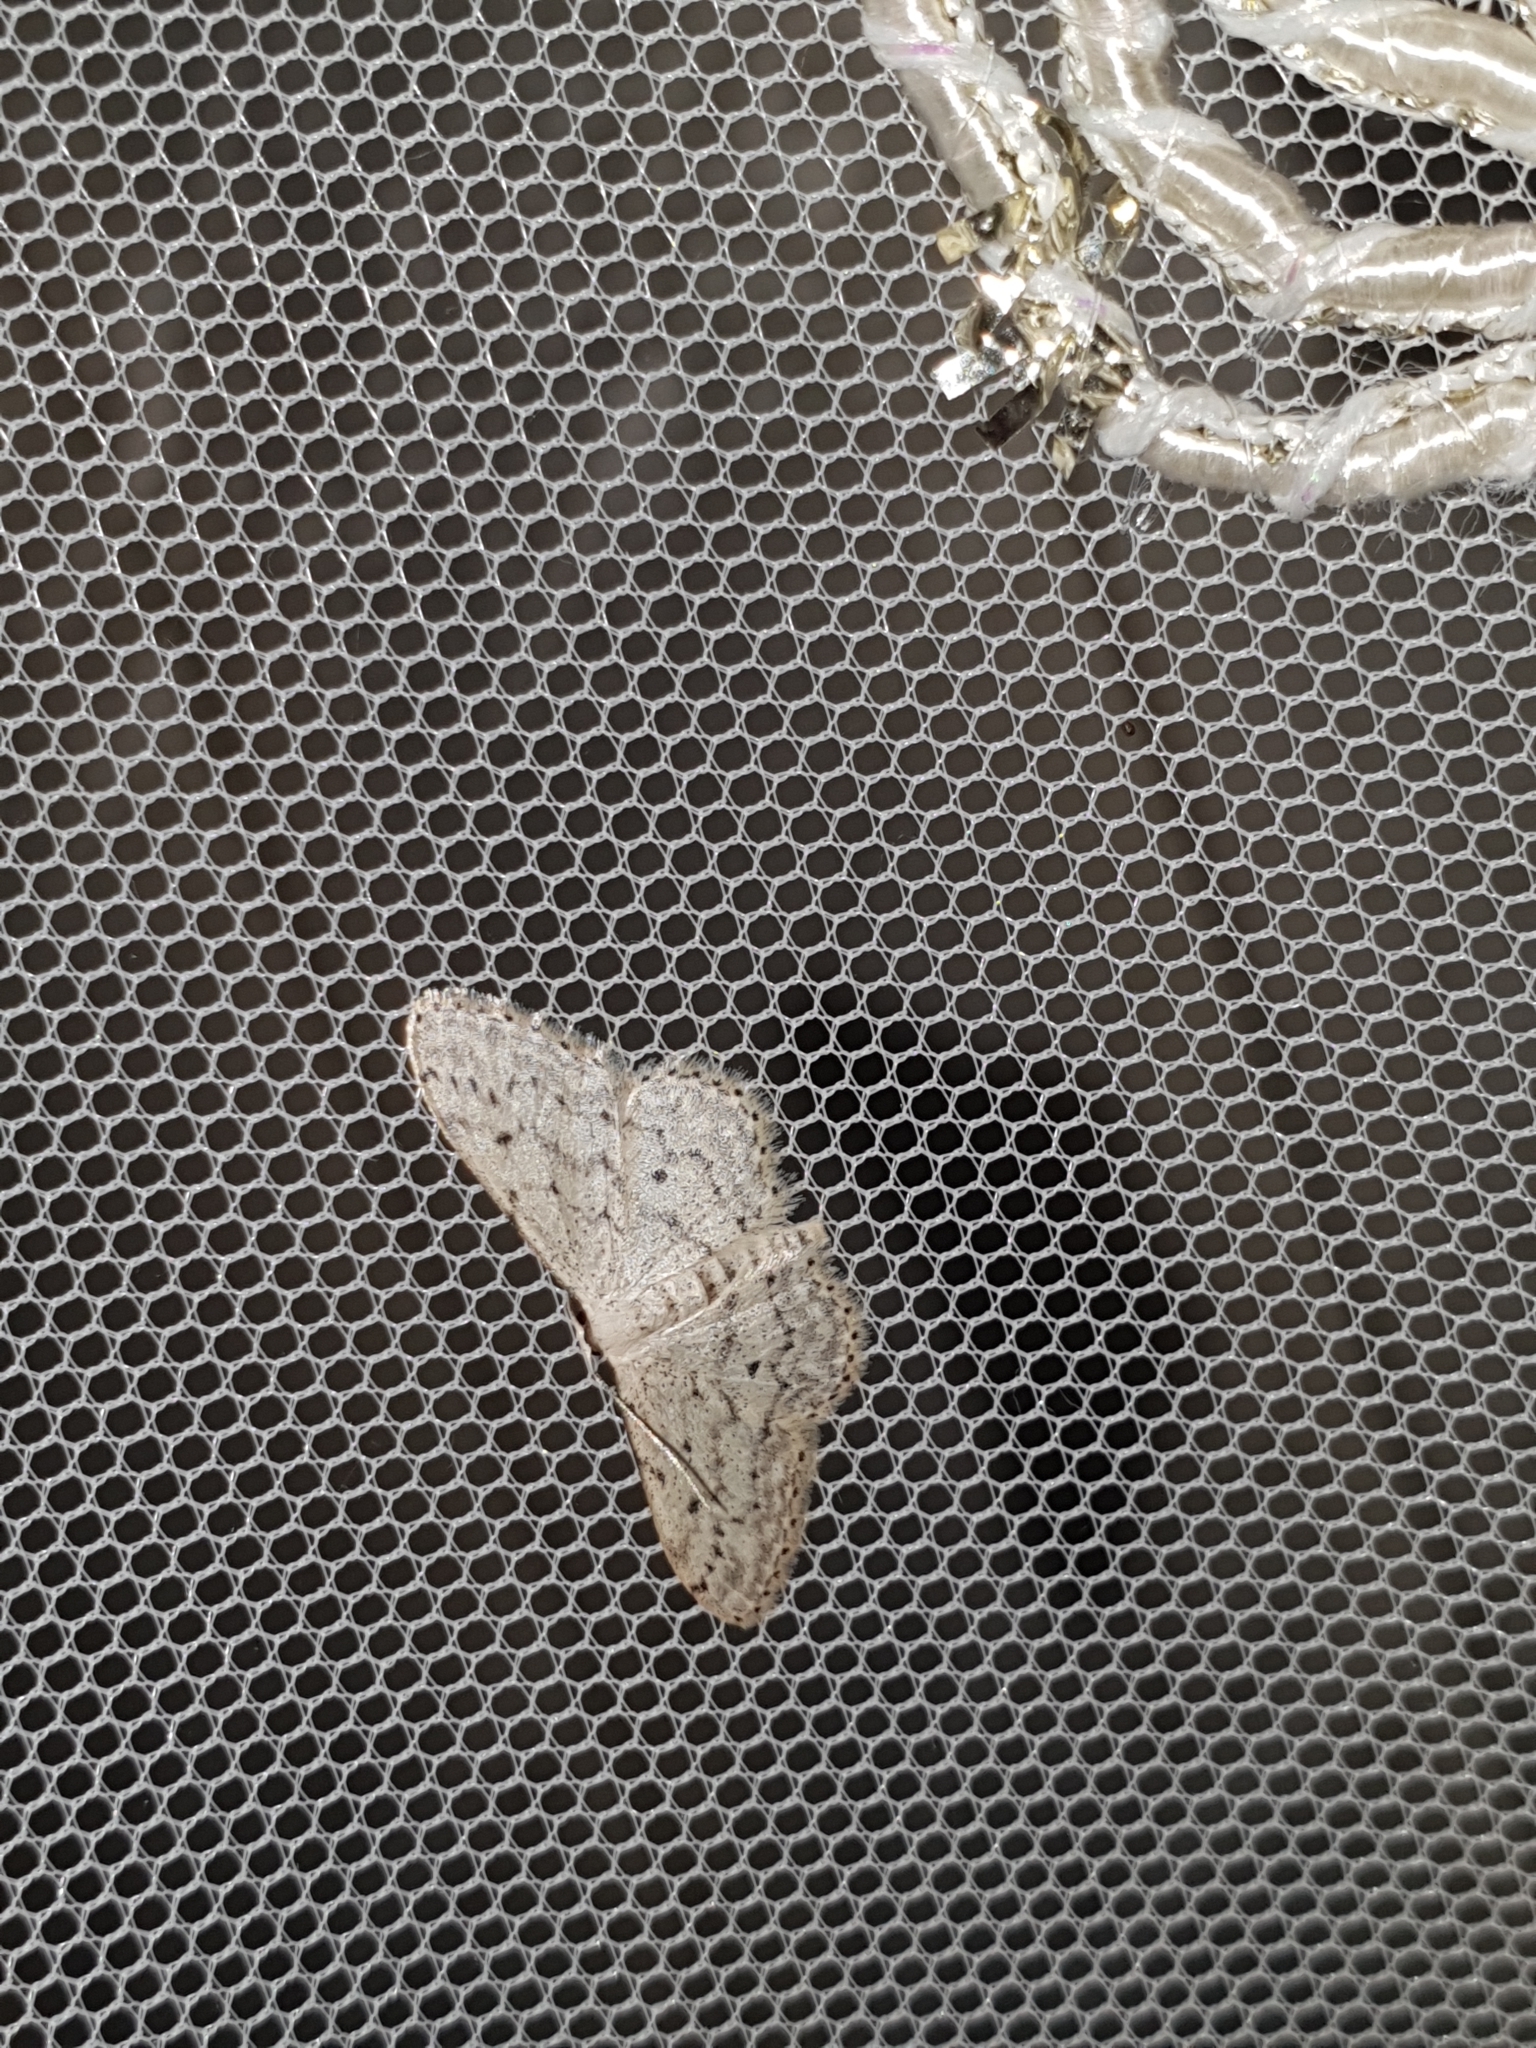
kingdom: Animalia
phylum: Arthropoda
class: Insecta
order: Lepidoptera
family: Geometridae
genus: Idaea
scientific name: Idaea seriata
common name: Small dusty wave
